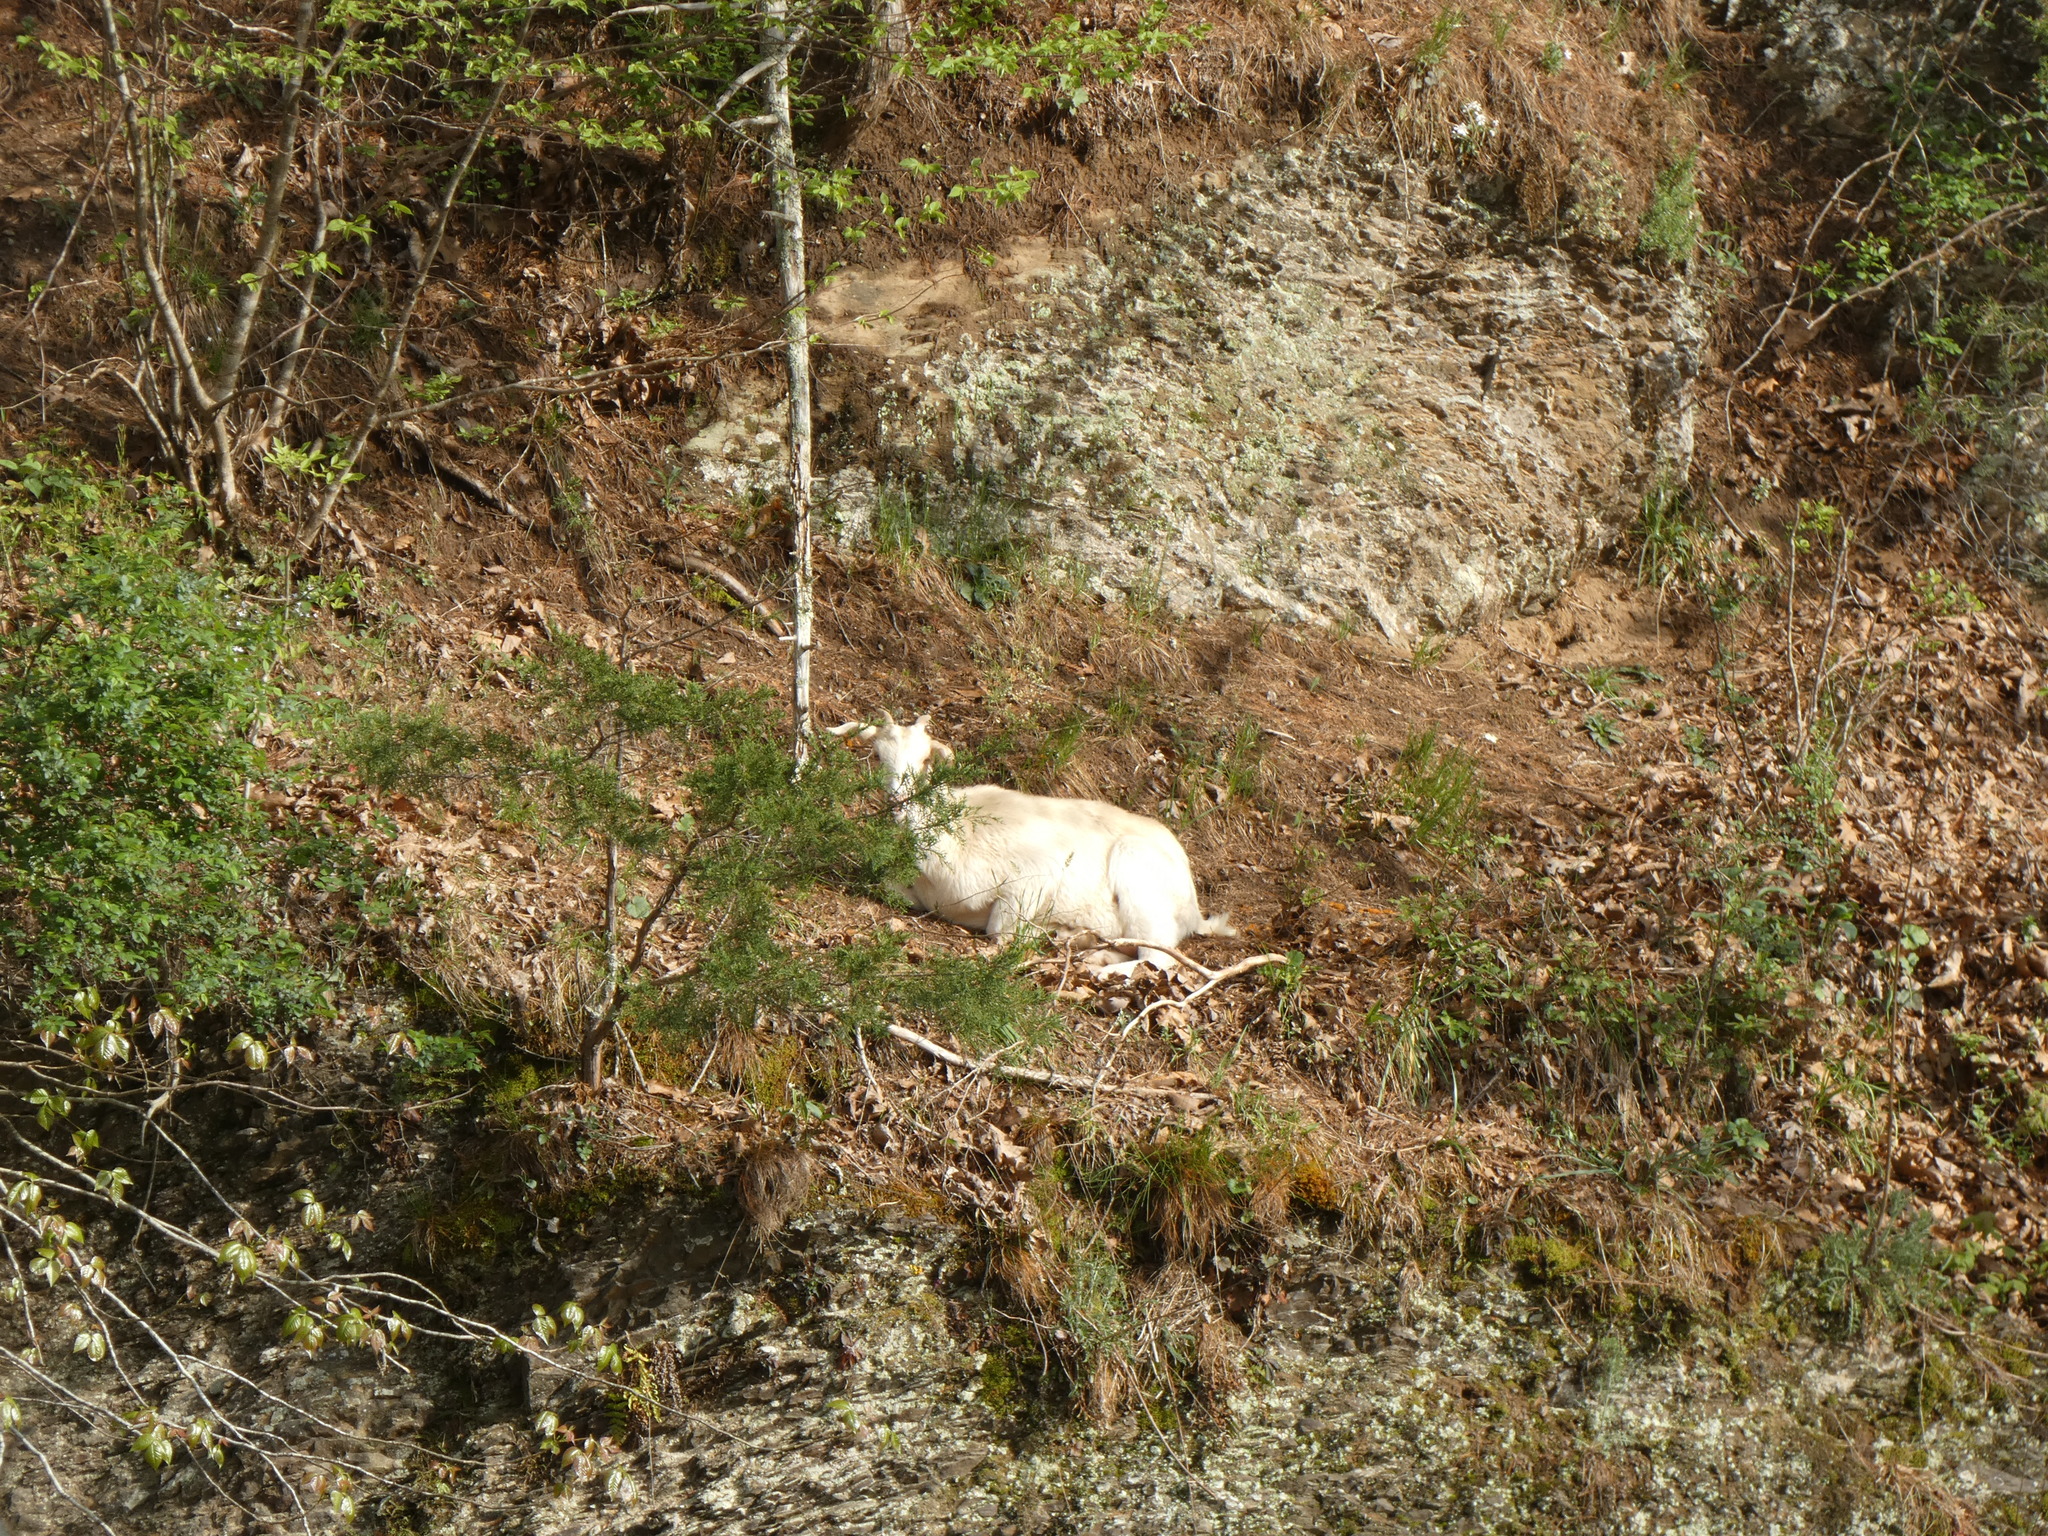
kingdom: Animalia
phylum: Chordata
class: Mammalia
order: Artiodactyla
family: Bovidae
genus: Capra
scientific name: Capra hircus
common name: Domestic goat
